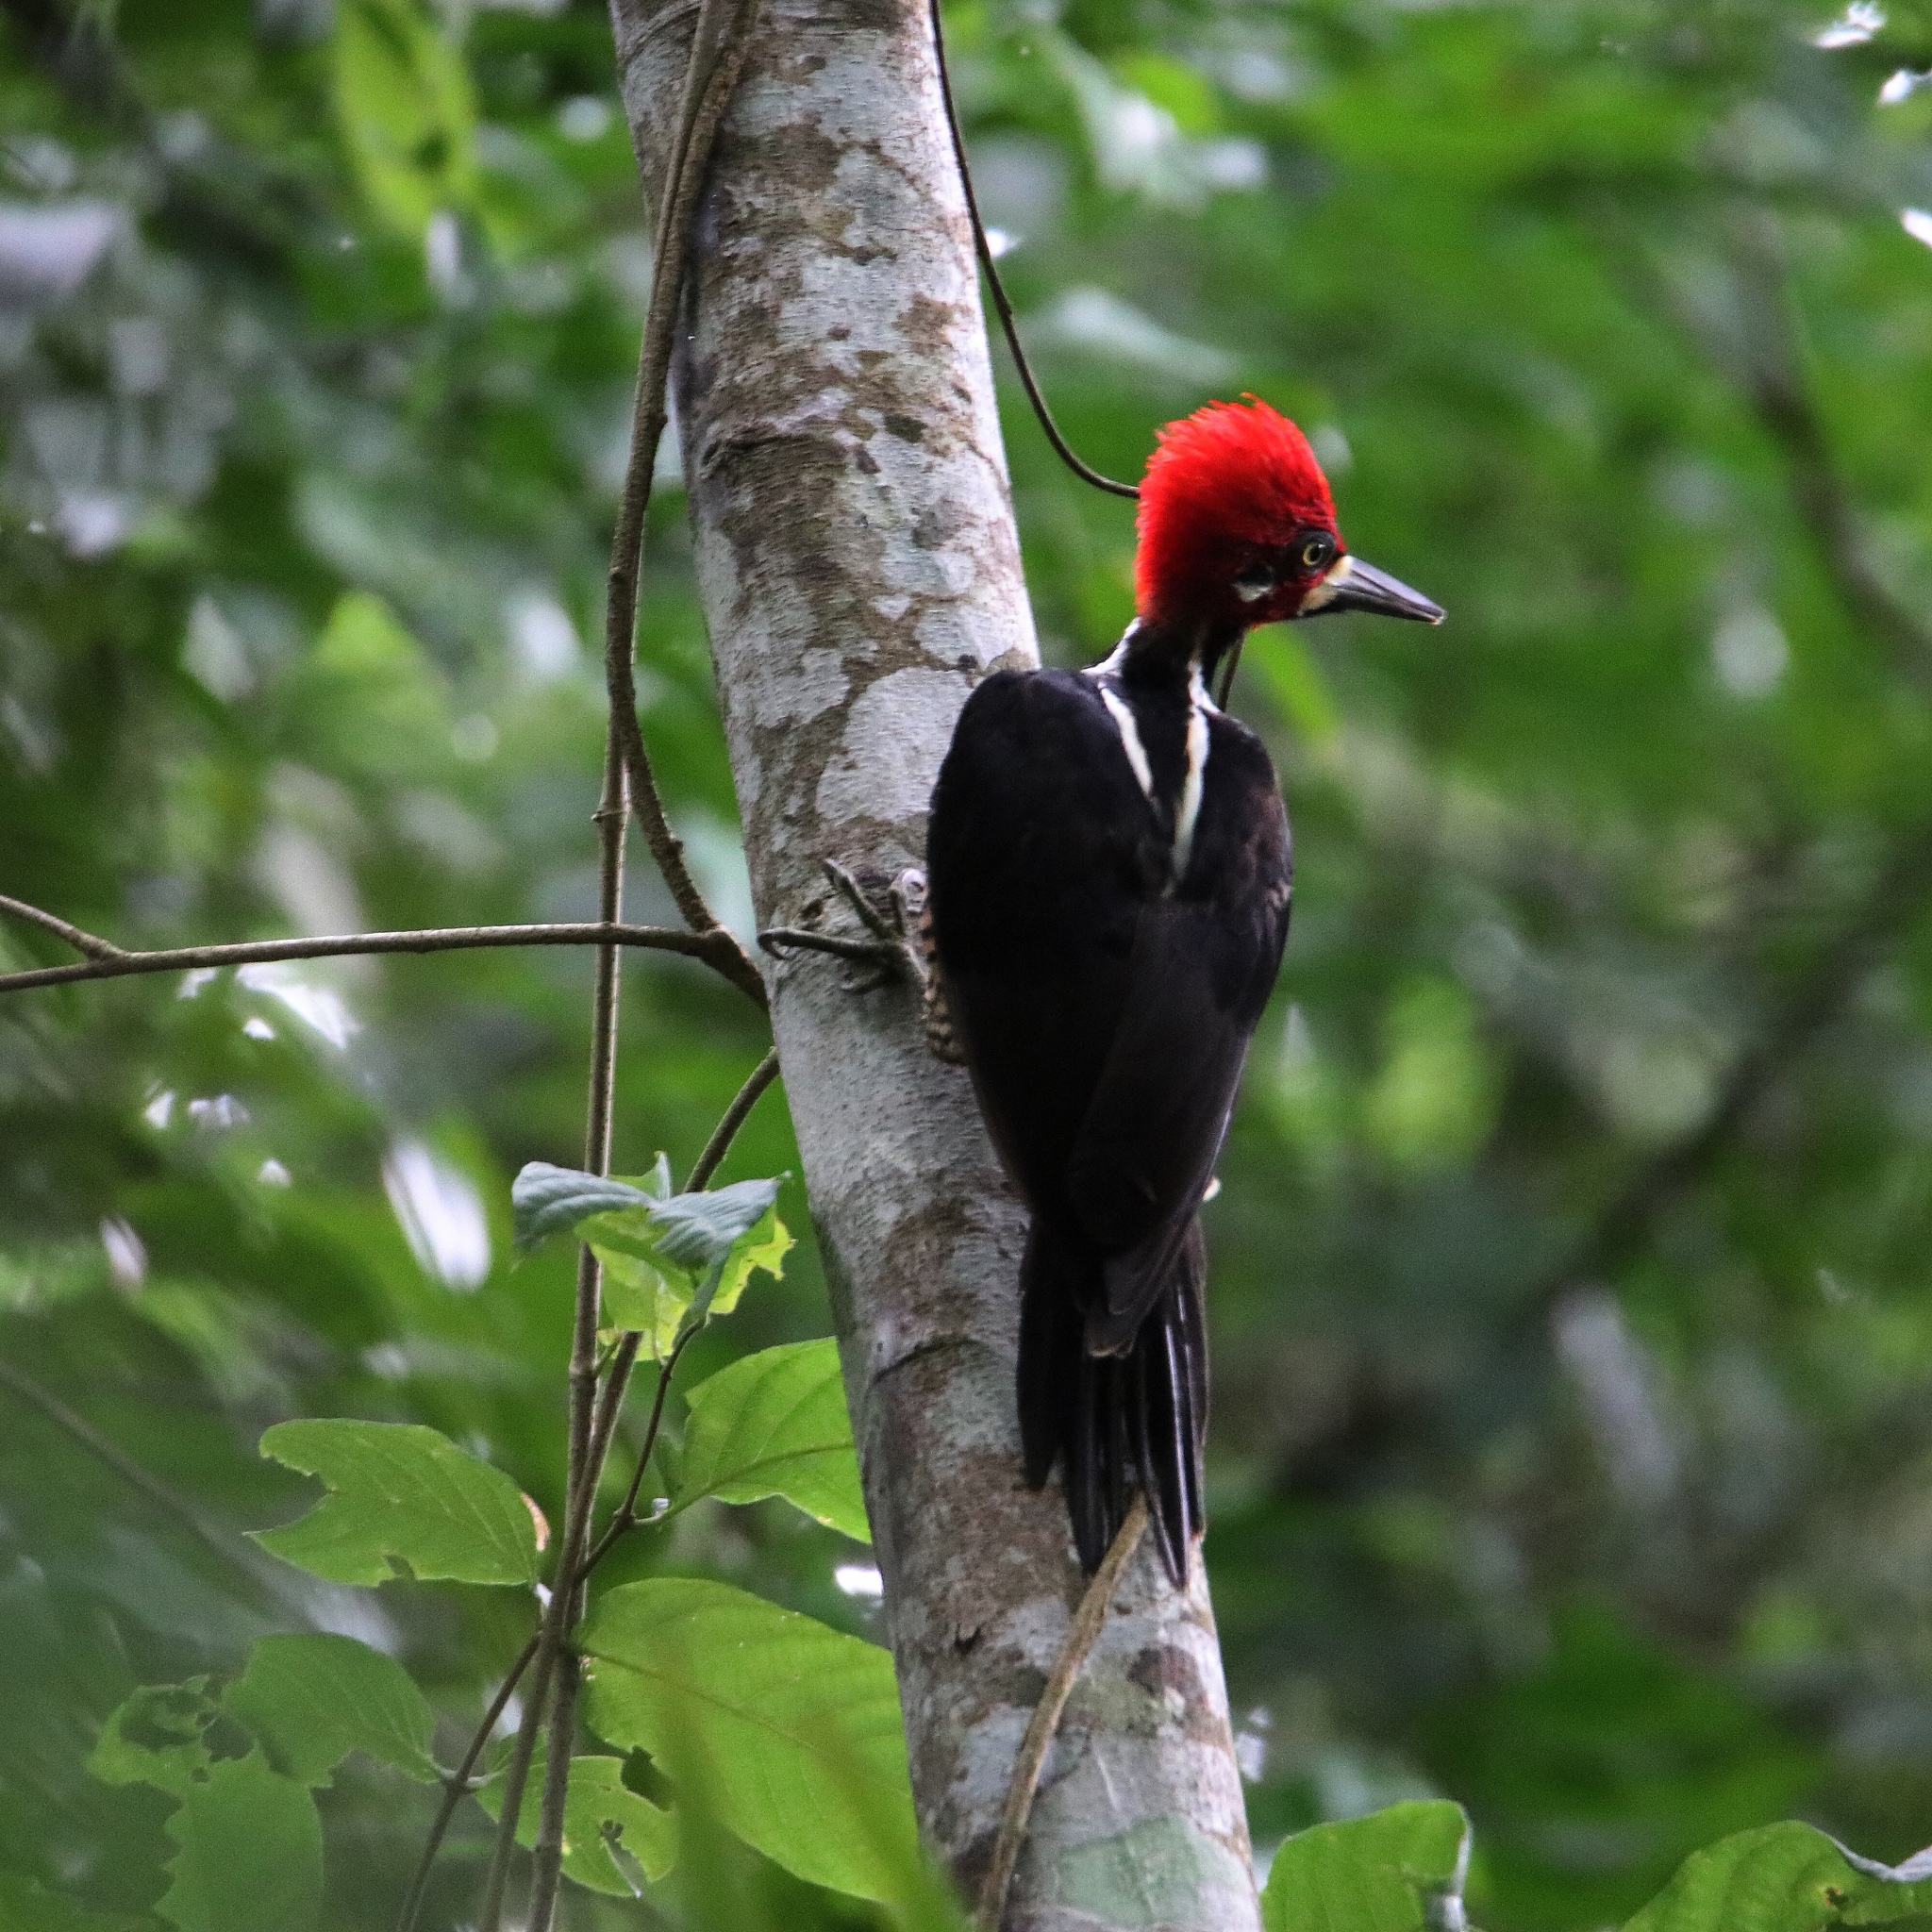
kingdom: Animalia
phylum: Chordata
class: Aves
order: Piciformes
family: Picidae
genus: Campephilus
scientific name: Campephilus melanoleucos
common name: Crimson-crested woodpecker
